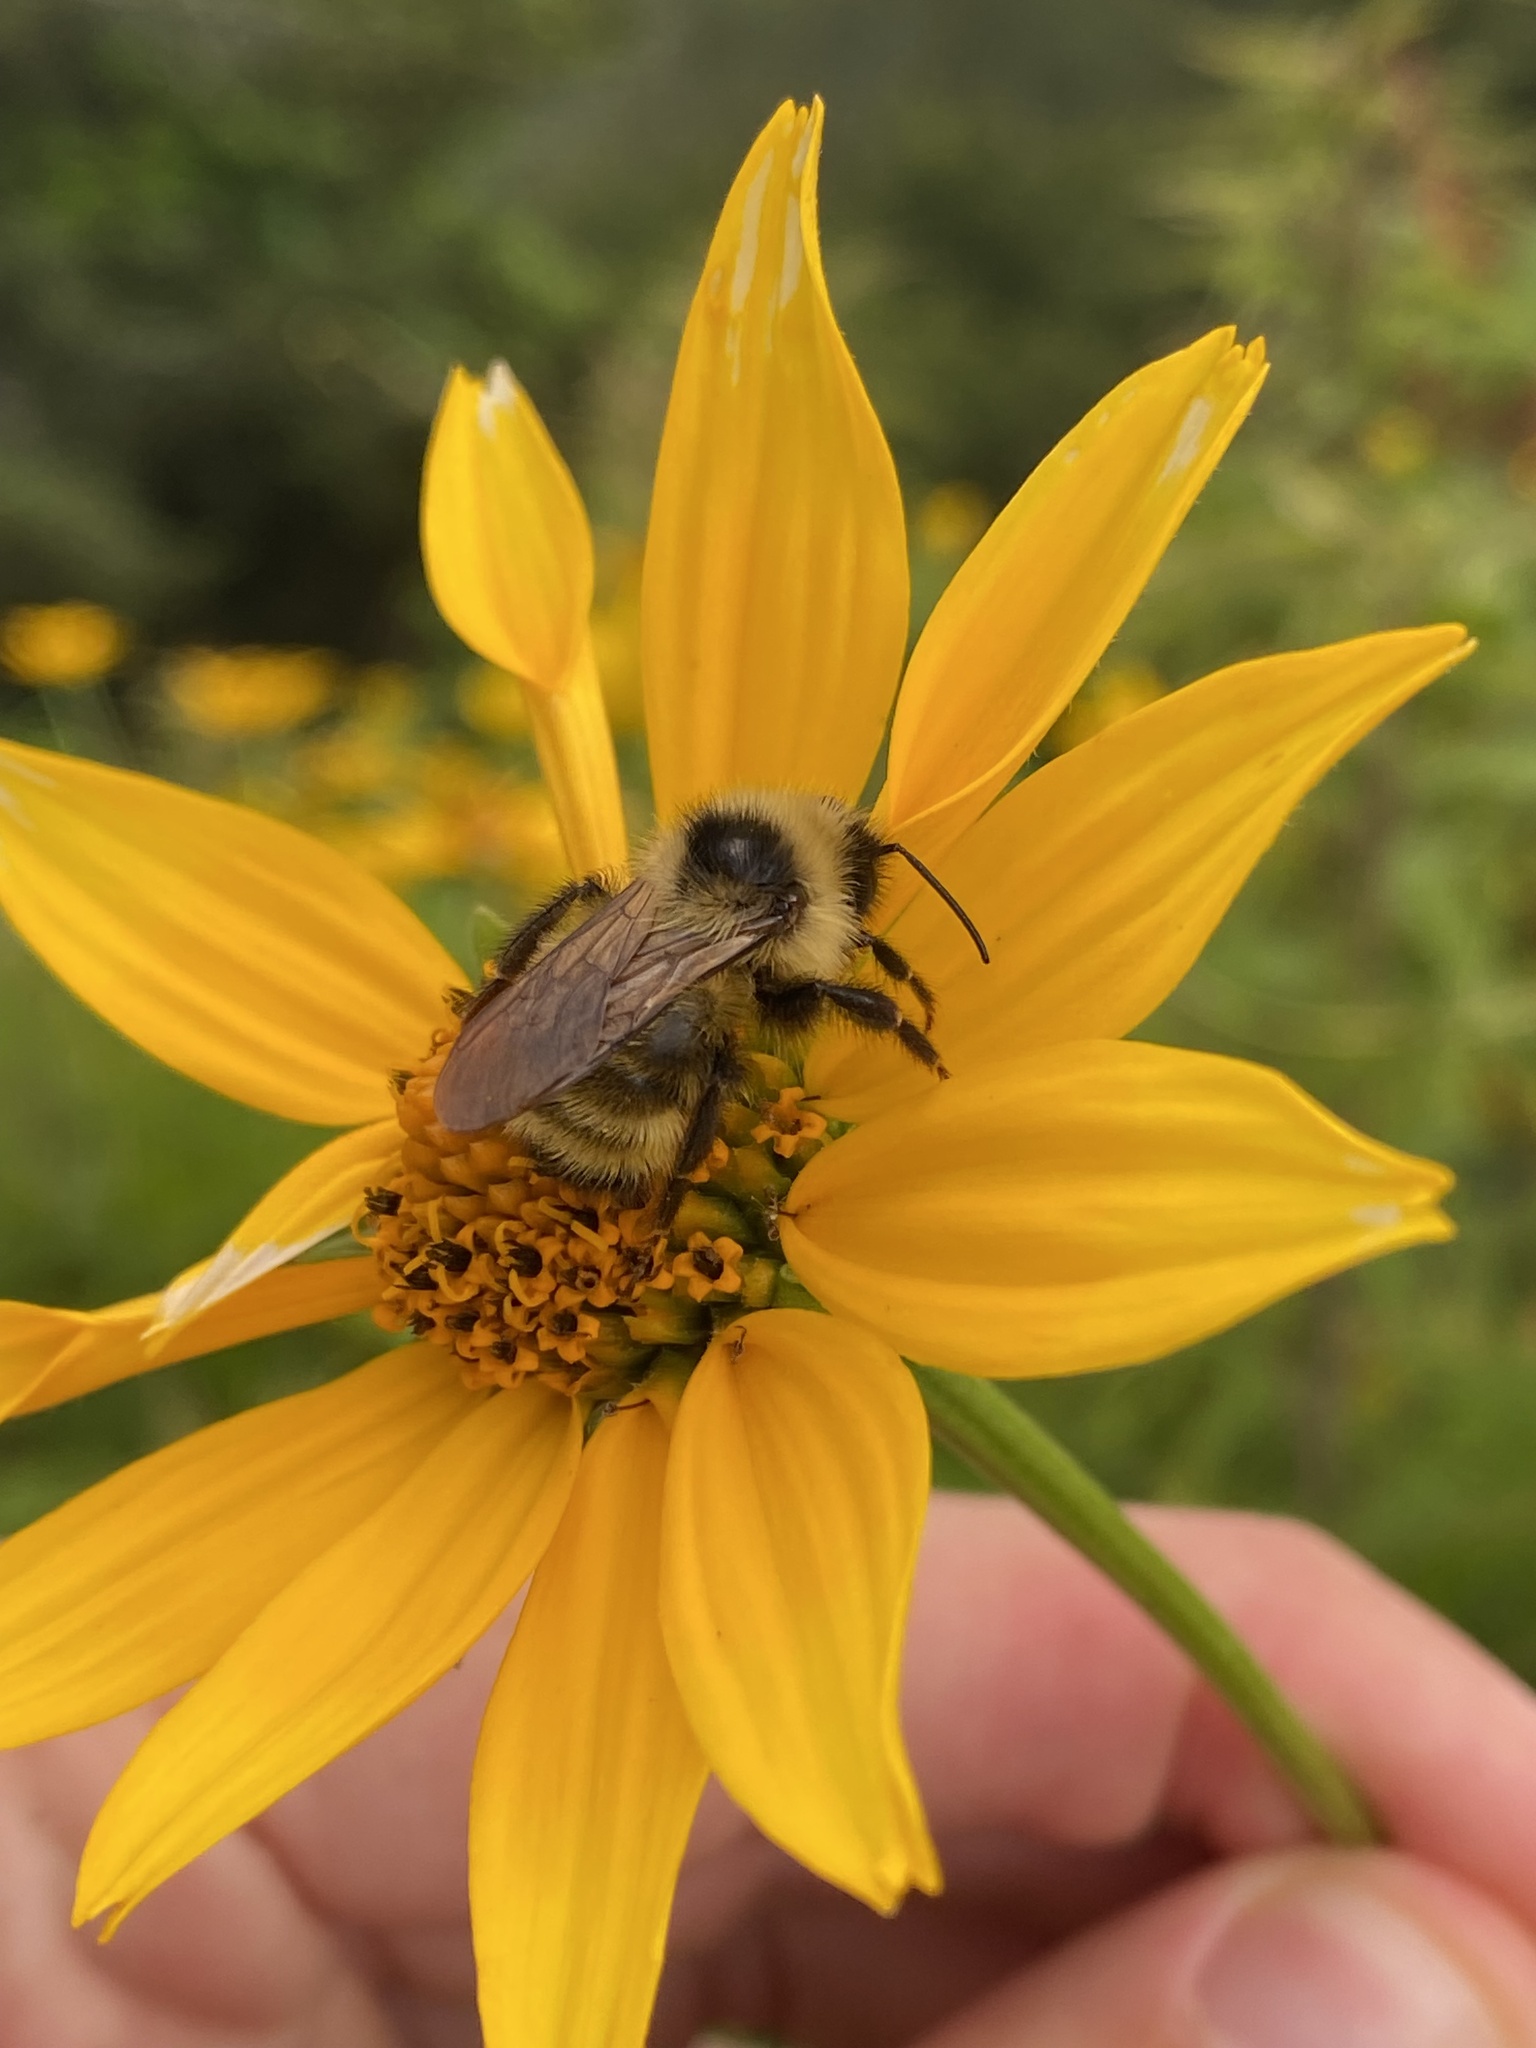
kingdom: Animalia
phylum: Arthropoda
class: Insecta
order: Hymenoptera
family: Apidae
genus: Bombus
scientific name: Bombus flavidus
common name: Fernald cuckoo bumble bee
